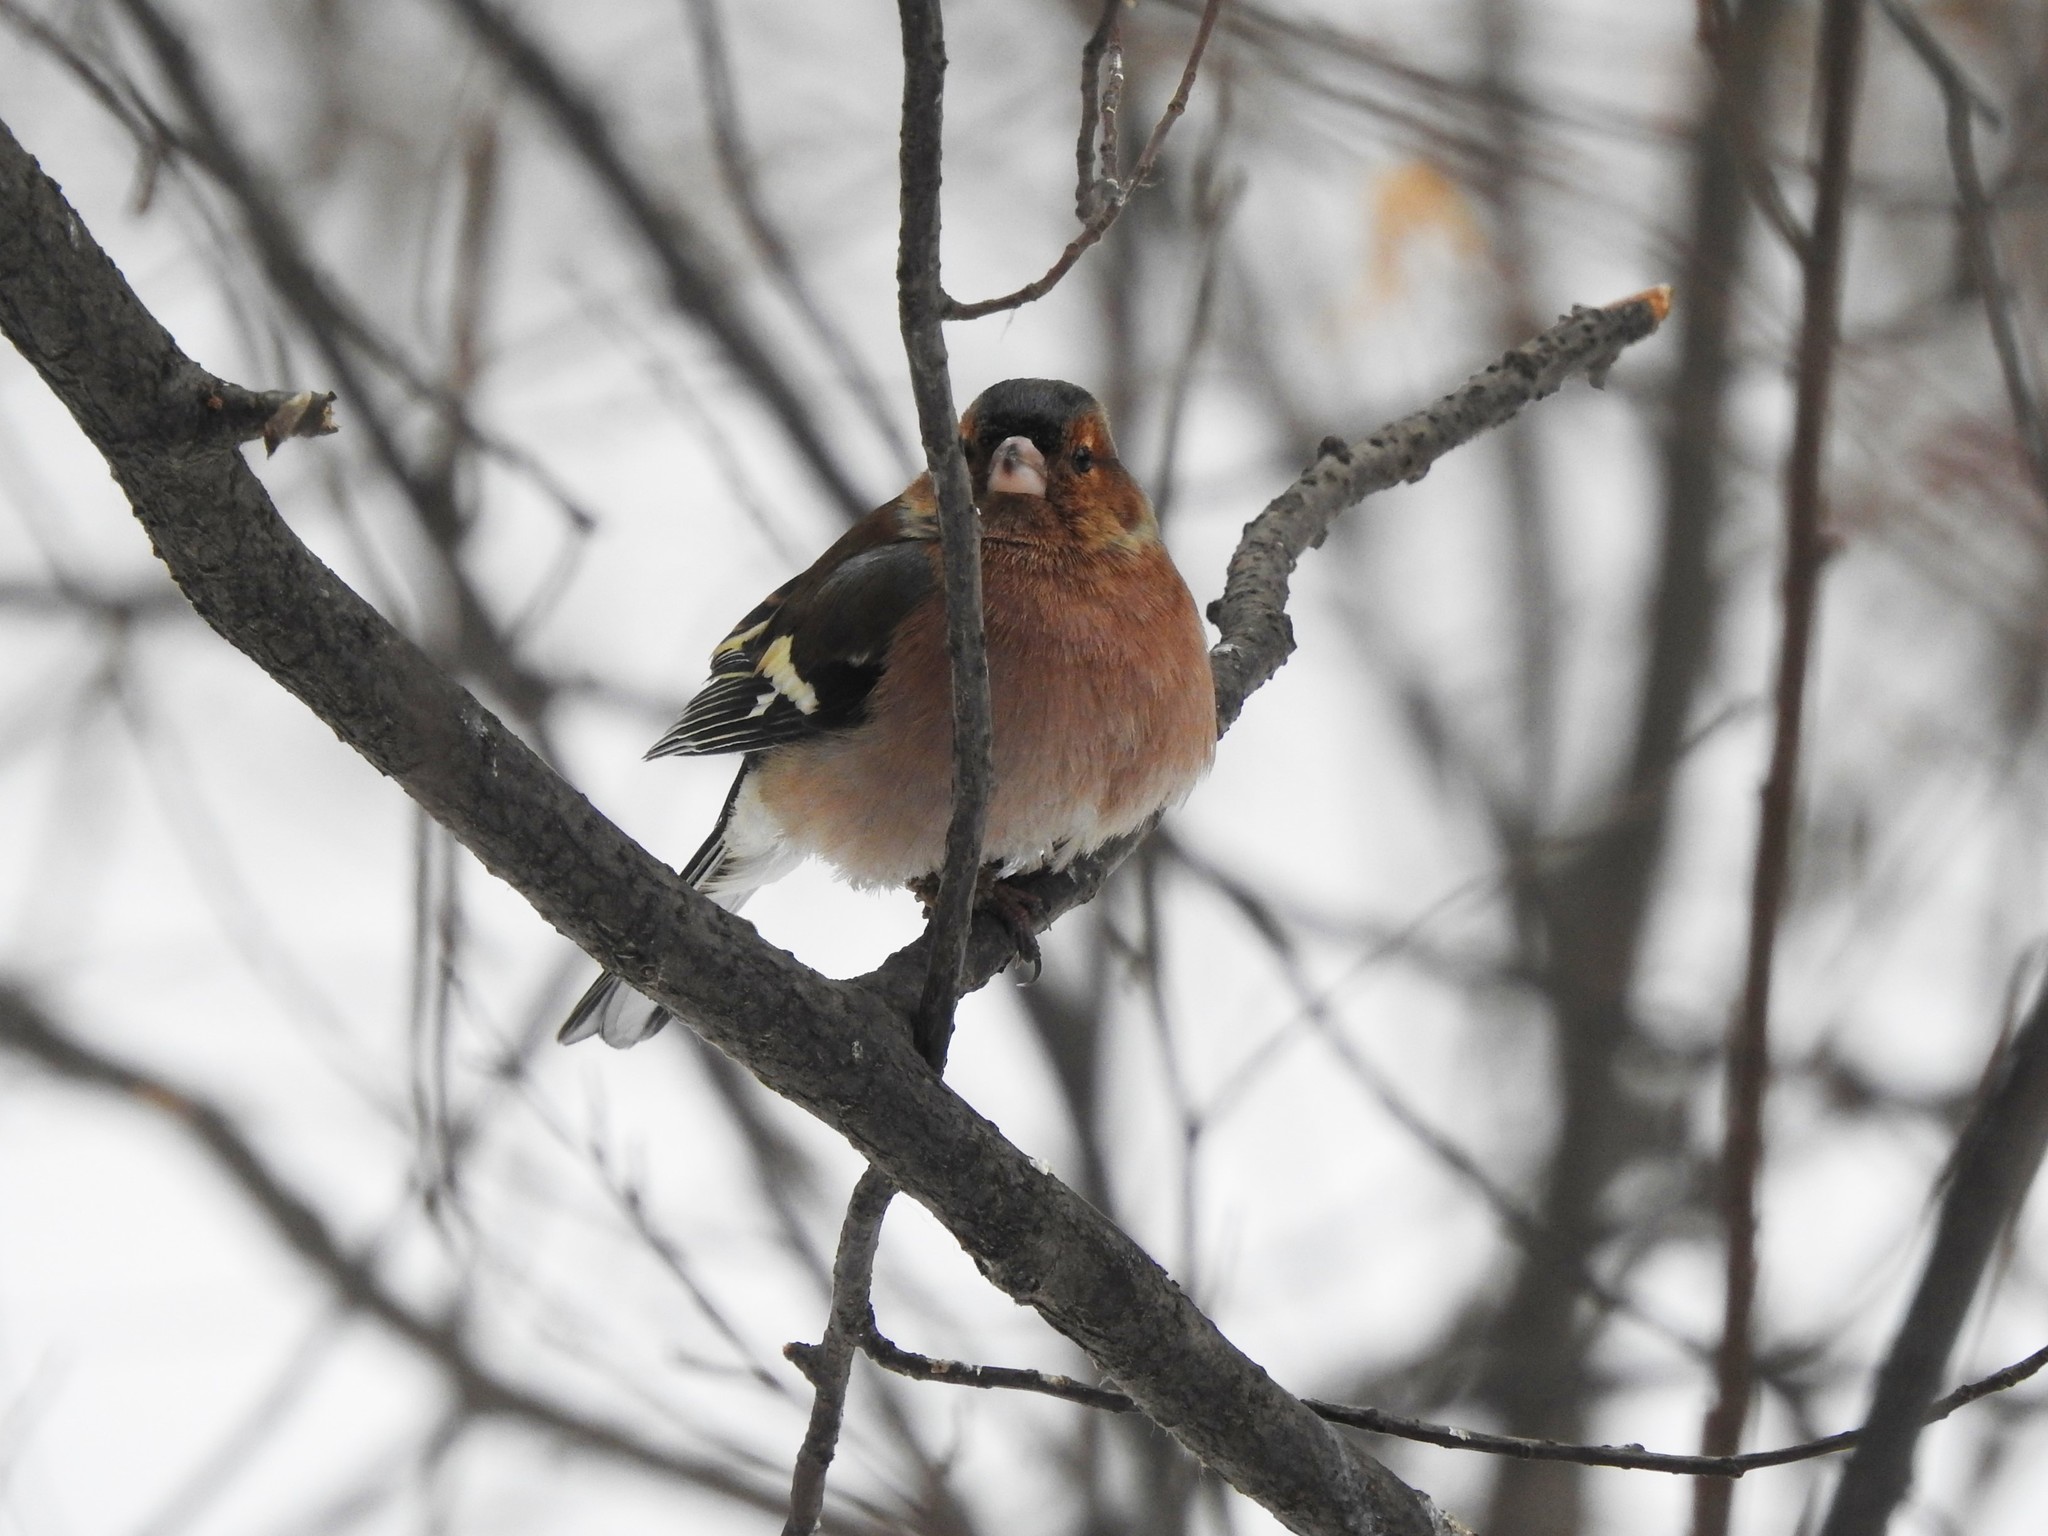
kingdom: Animalia
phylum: Chordata
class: Aves
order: Passeriformes
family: Fringillidae
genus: Fringilla
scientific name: Fringilla coelebs
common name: Common chaffinch
